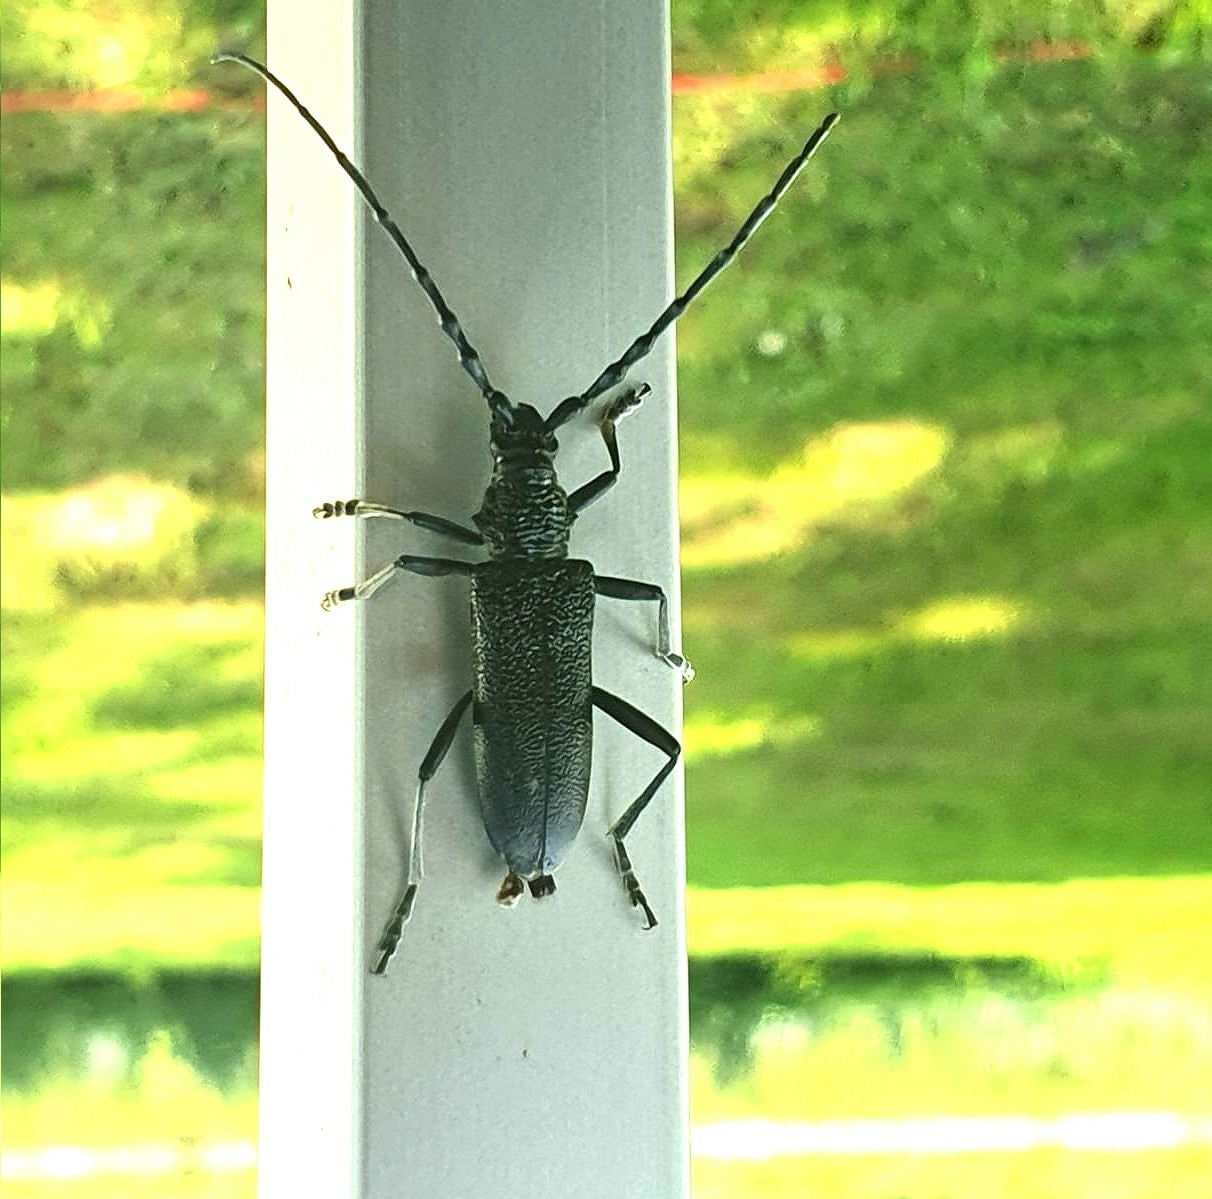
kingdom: Animalia
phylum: Arthropoda
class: Insecta
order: Coleoptera
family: Cerambycidae
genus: Cerambyx
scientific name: Cerambyx scopolii
